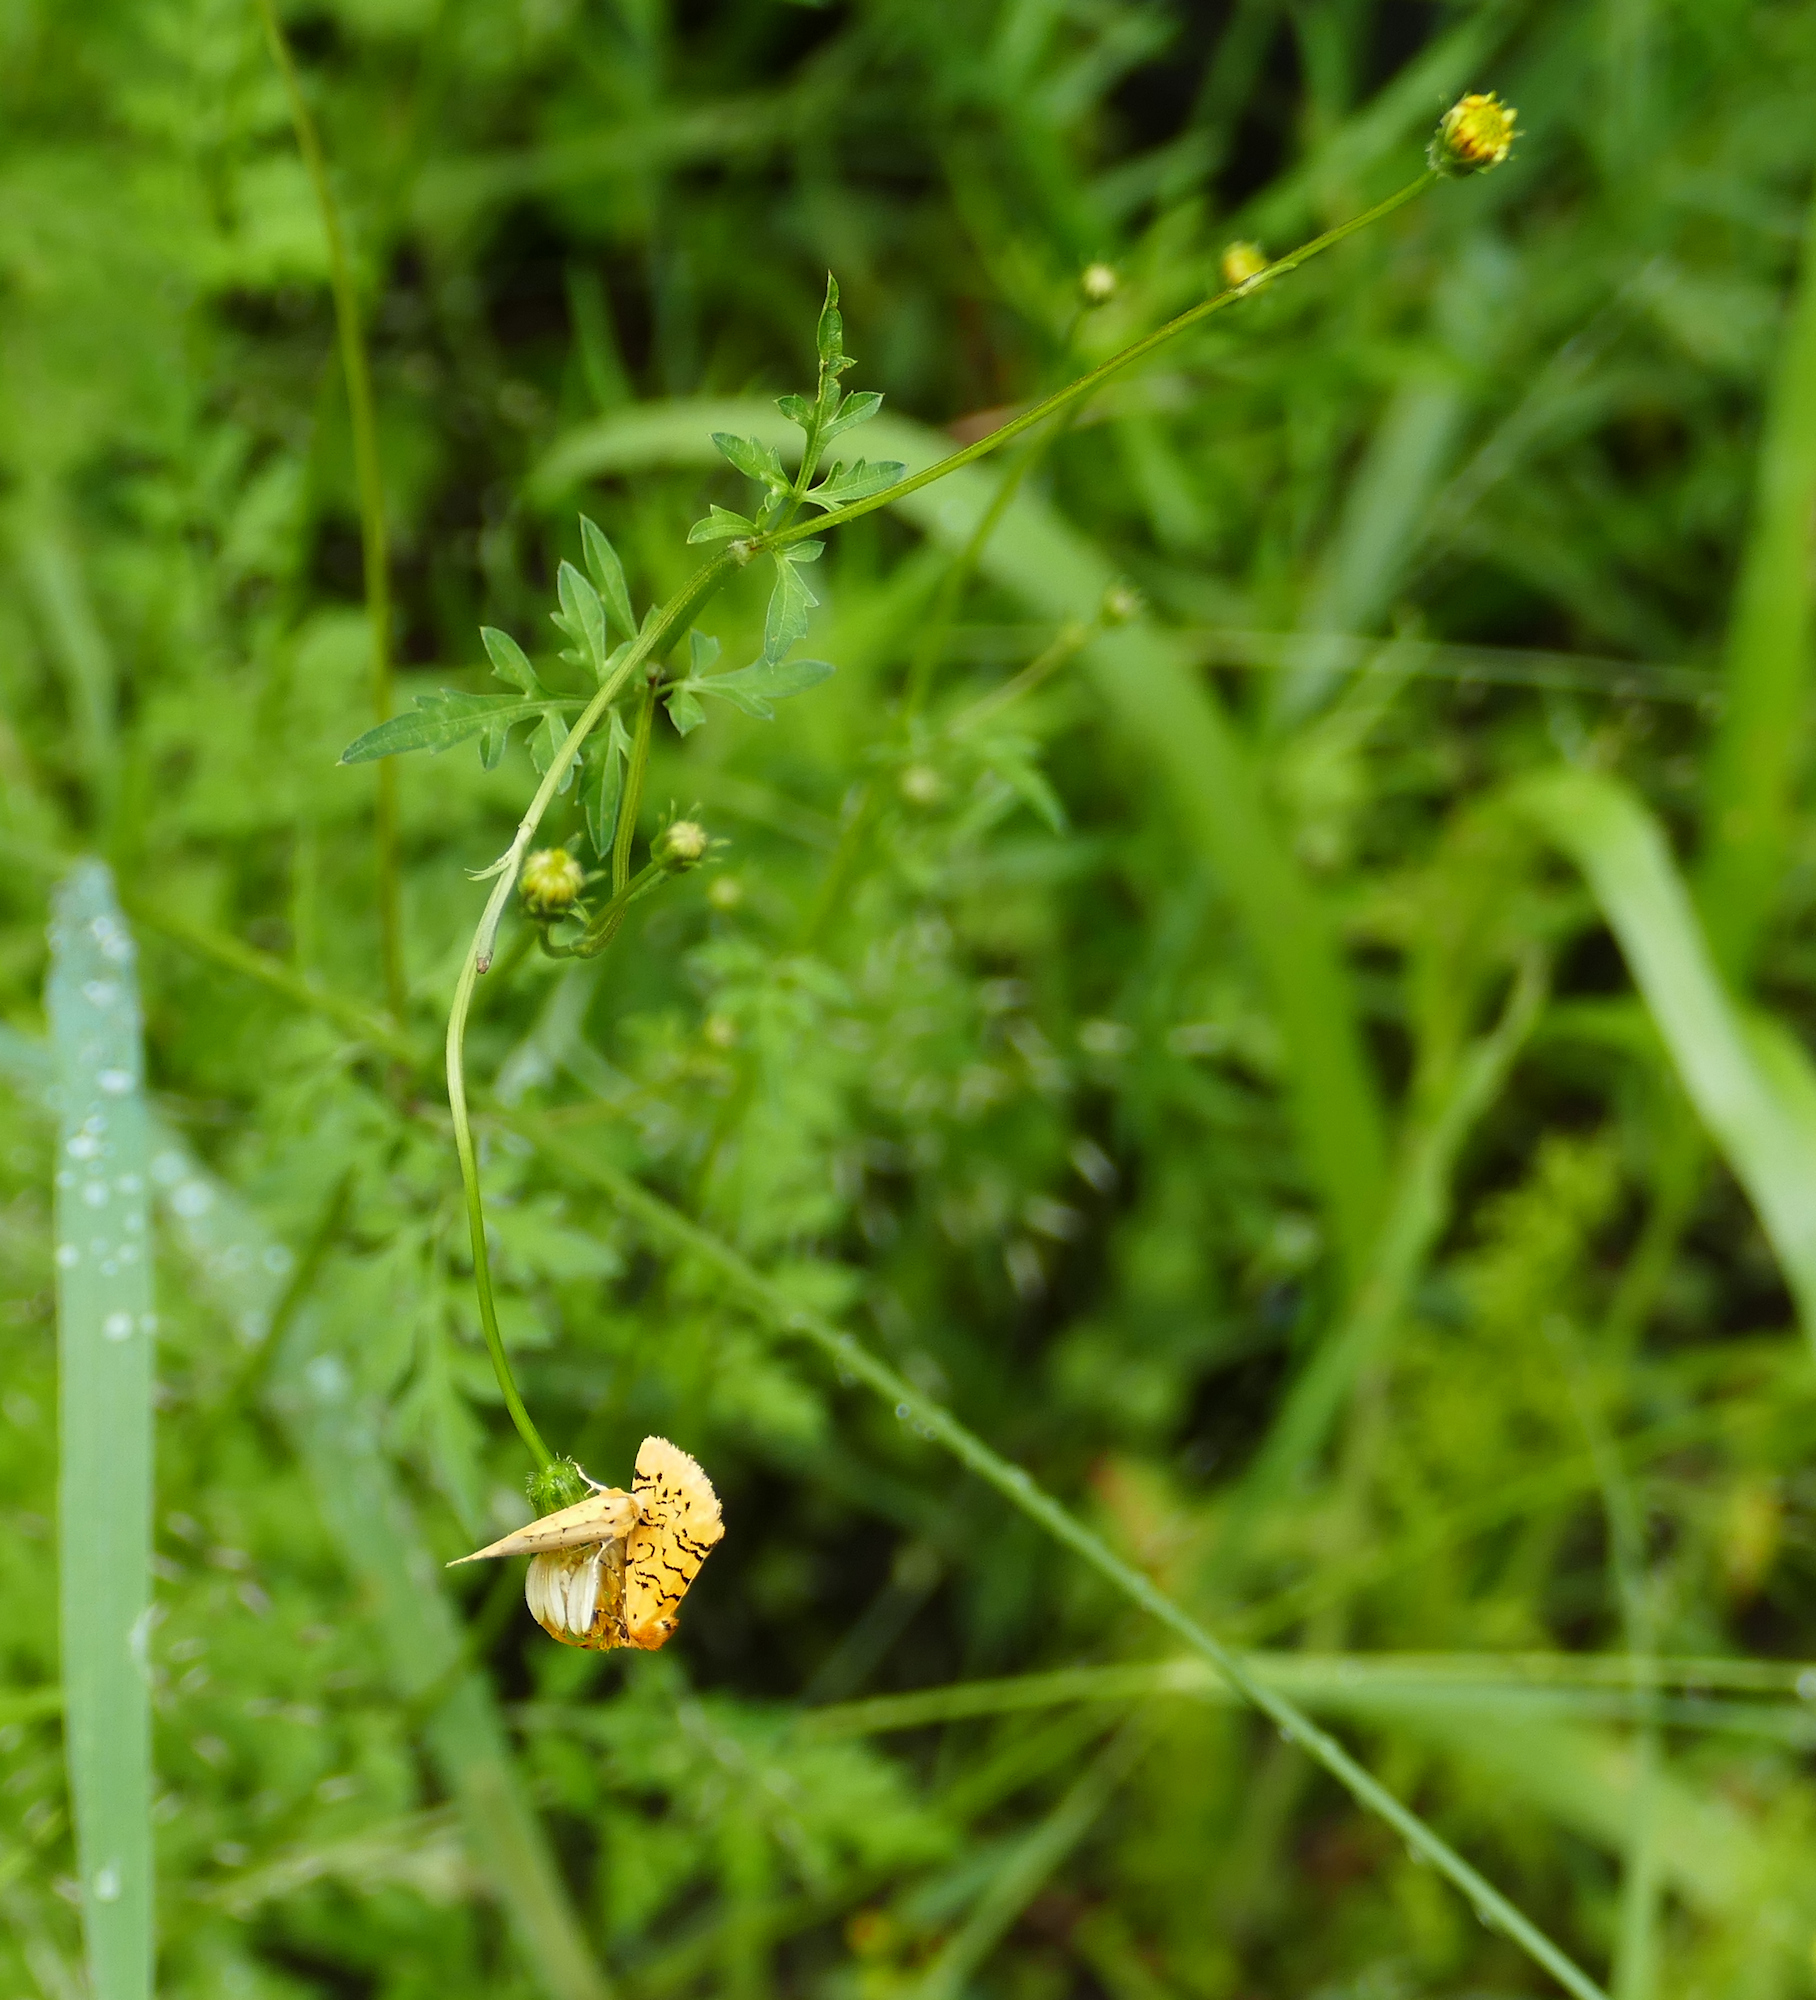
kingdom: Animalia
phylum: Arthropoda
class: Insecta
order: Lepidoptera
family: Noctuidae
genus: Chrysoecia
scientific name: Chrysoecia atrolinea
